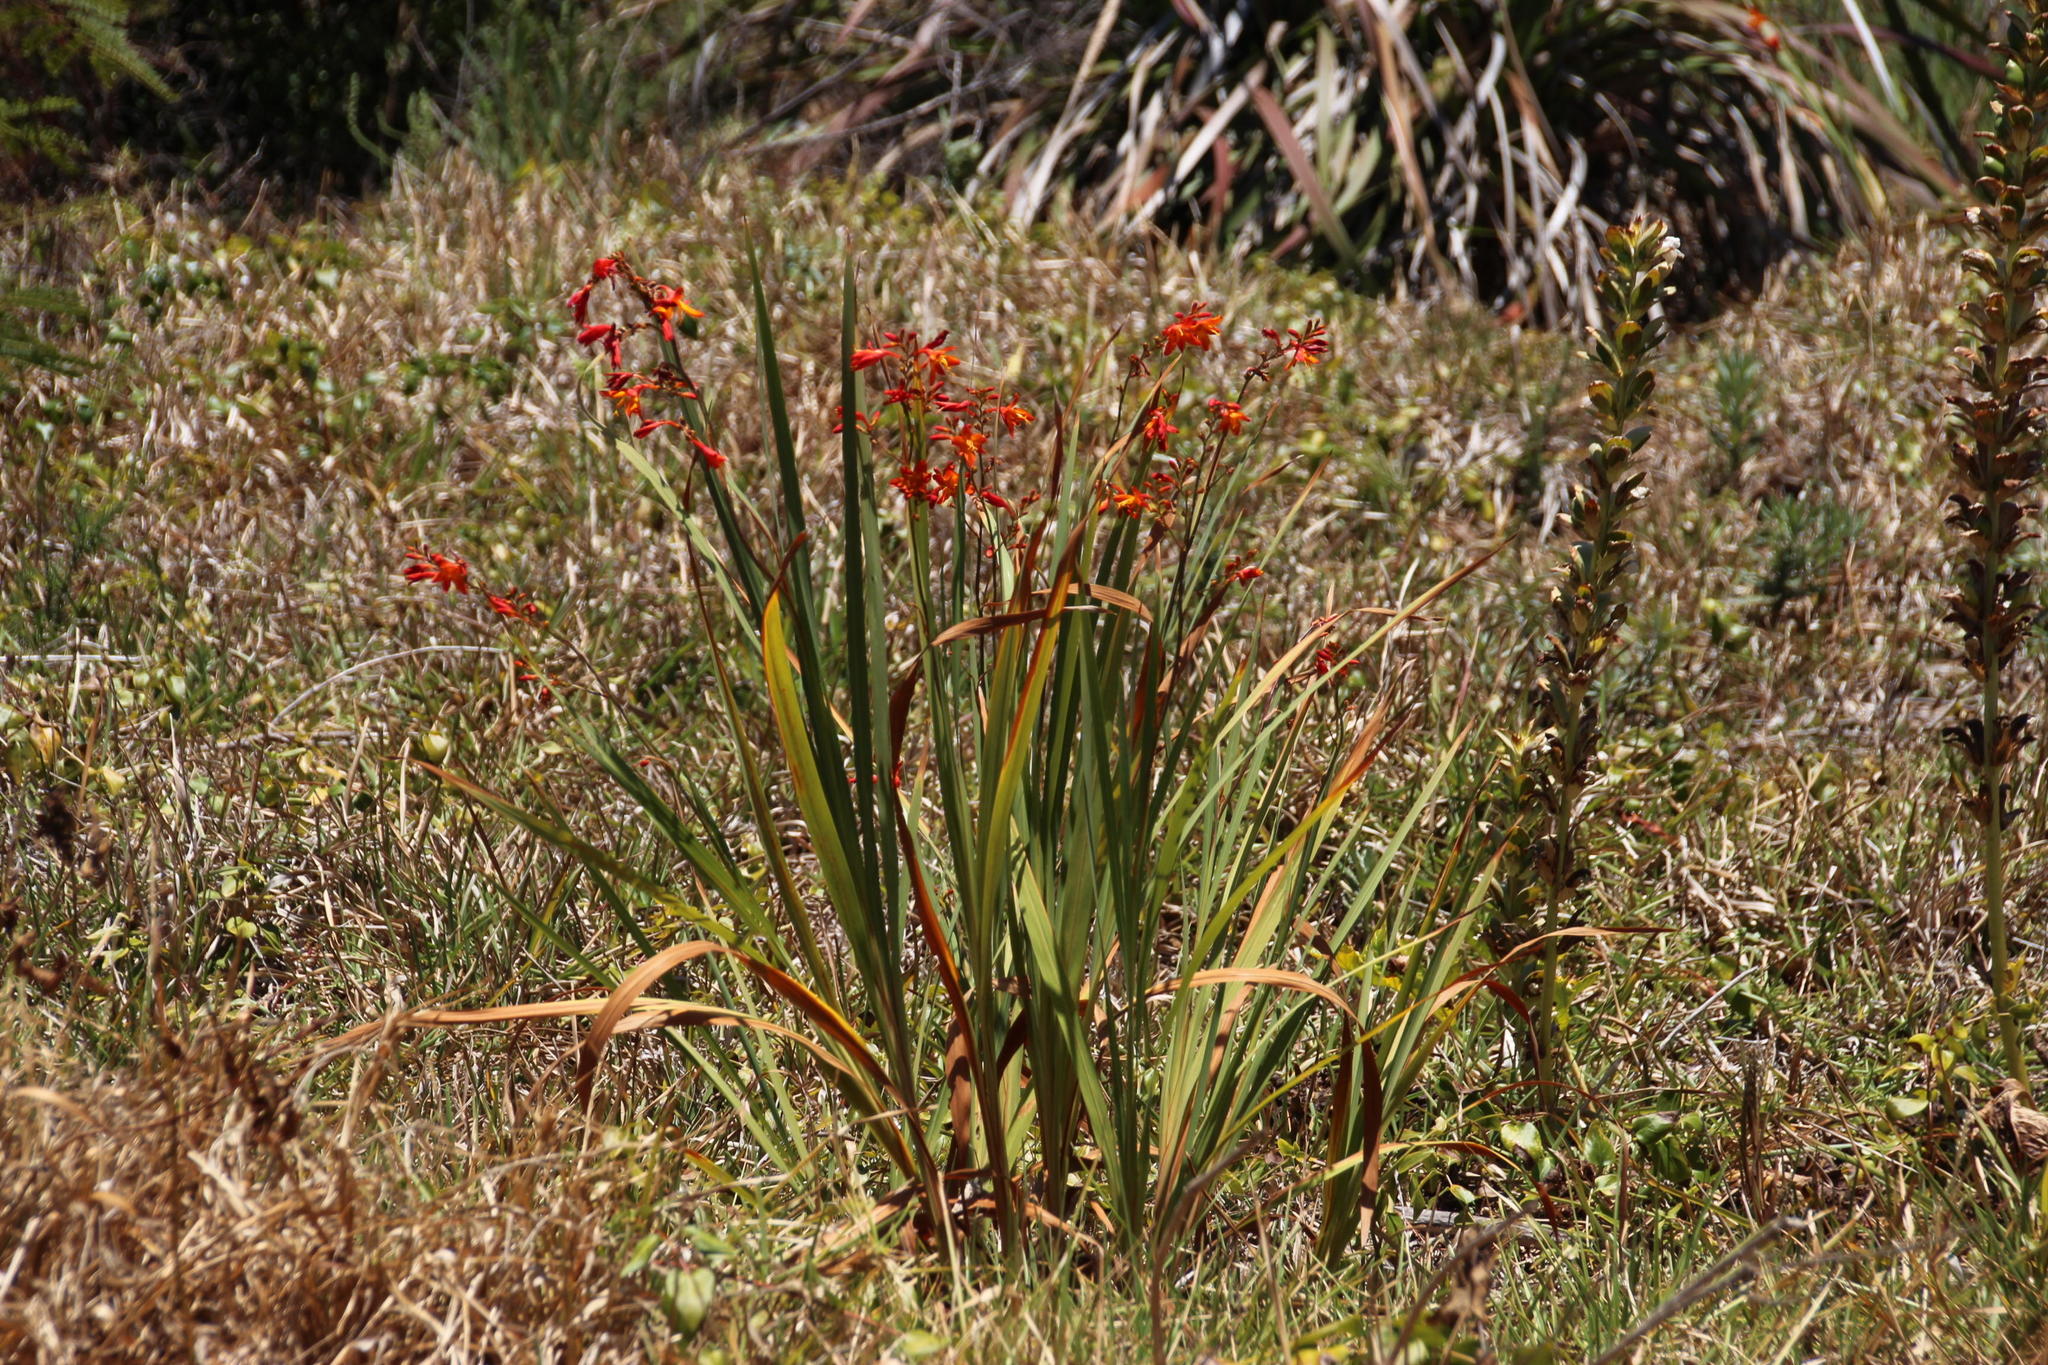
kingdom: Plantae
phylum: Tracheophyta
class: Liliopsida
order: Asparagales
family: Iridaceae
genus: Crocosmia
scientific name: Crocosmia crocosmiiflora
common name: Montbretia
